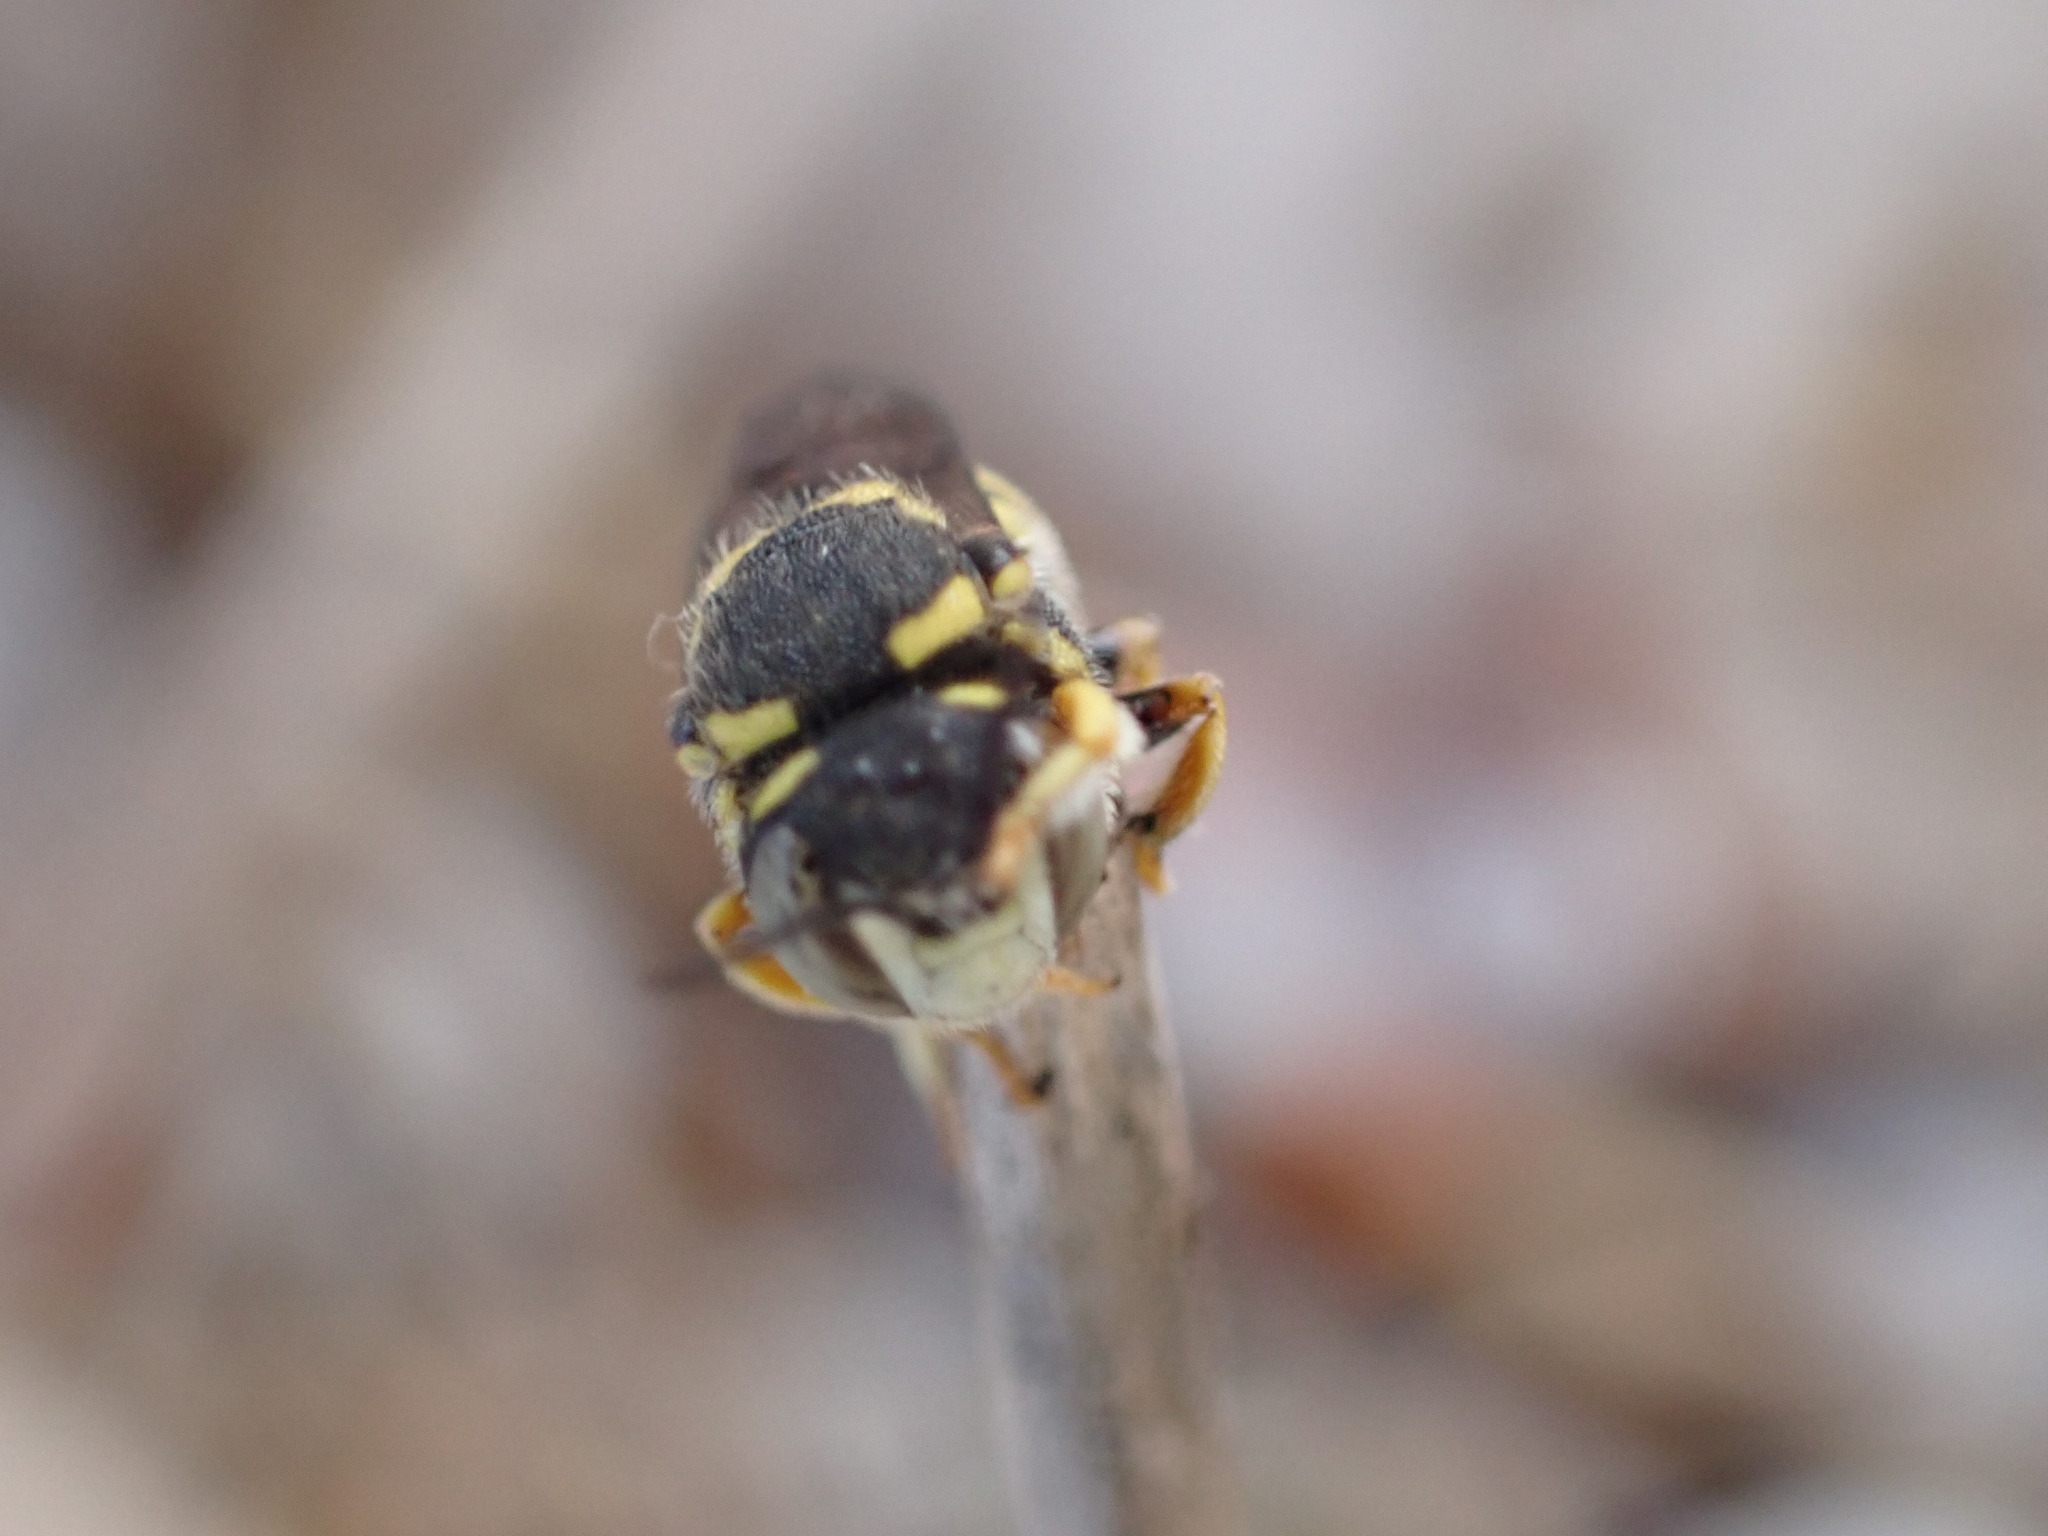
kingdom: Animalia
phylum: Arthropoda
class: Insecta
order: Hymenoptera
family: Megachilidae
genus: Anthidiellum
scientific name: Anthidiellum strigatum
